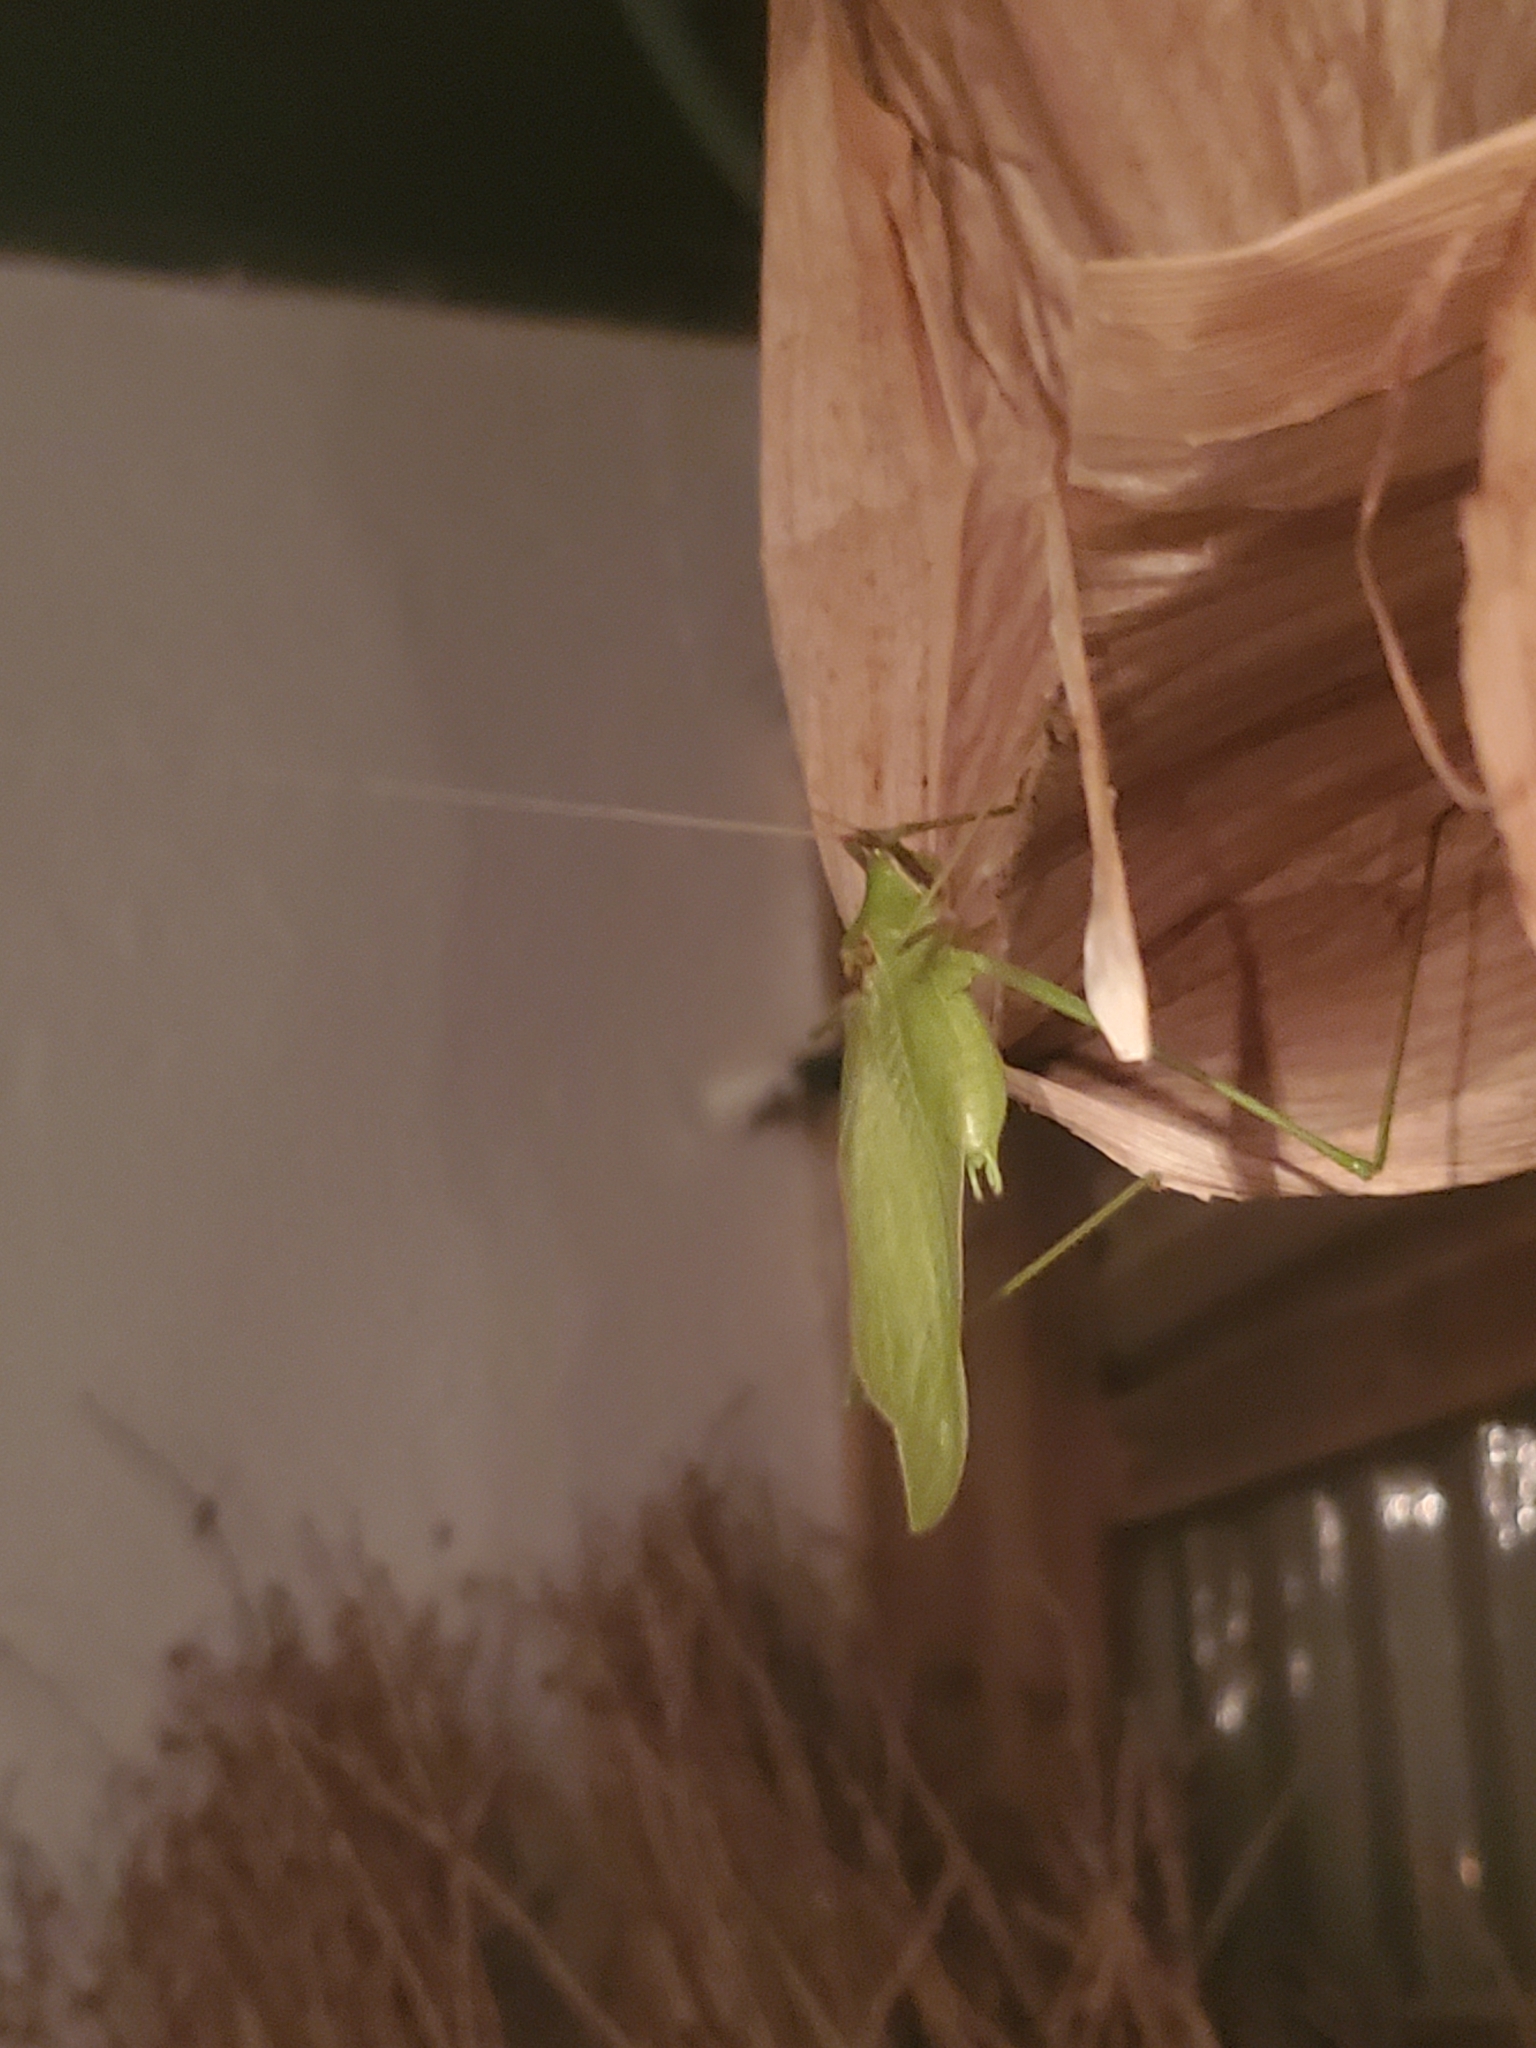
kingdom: Animalia
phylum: Arthropoda
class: Insecta
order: Orthoptera
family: Tettigoniidae
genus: Acrometopa
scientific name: Acrometopa syriaca
